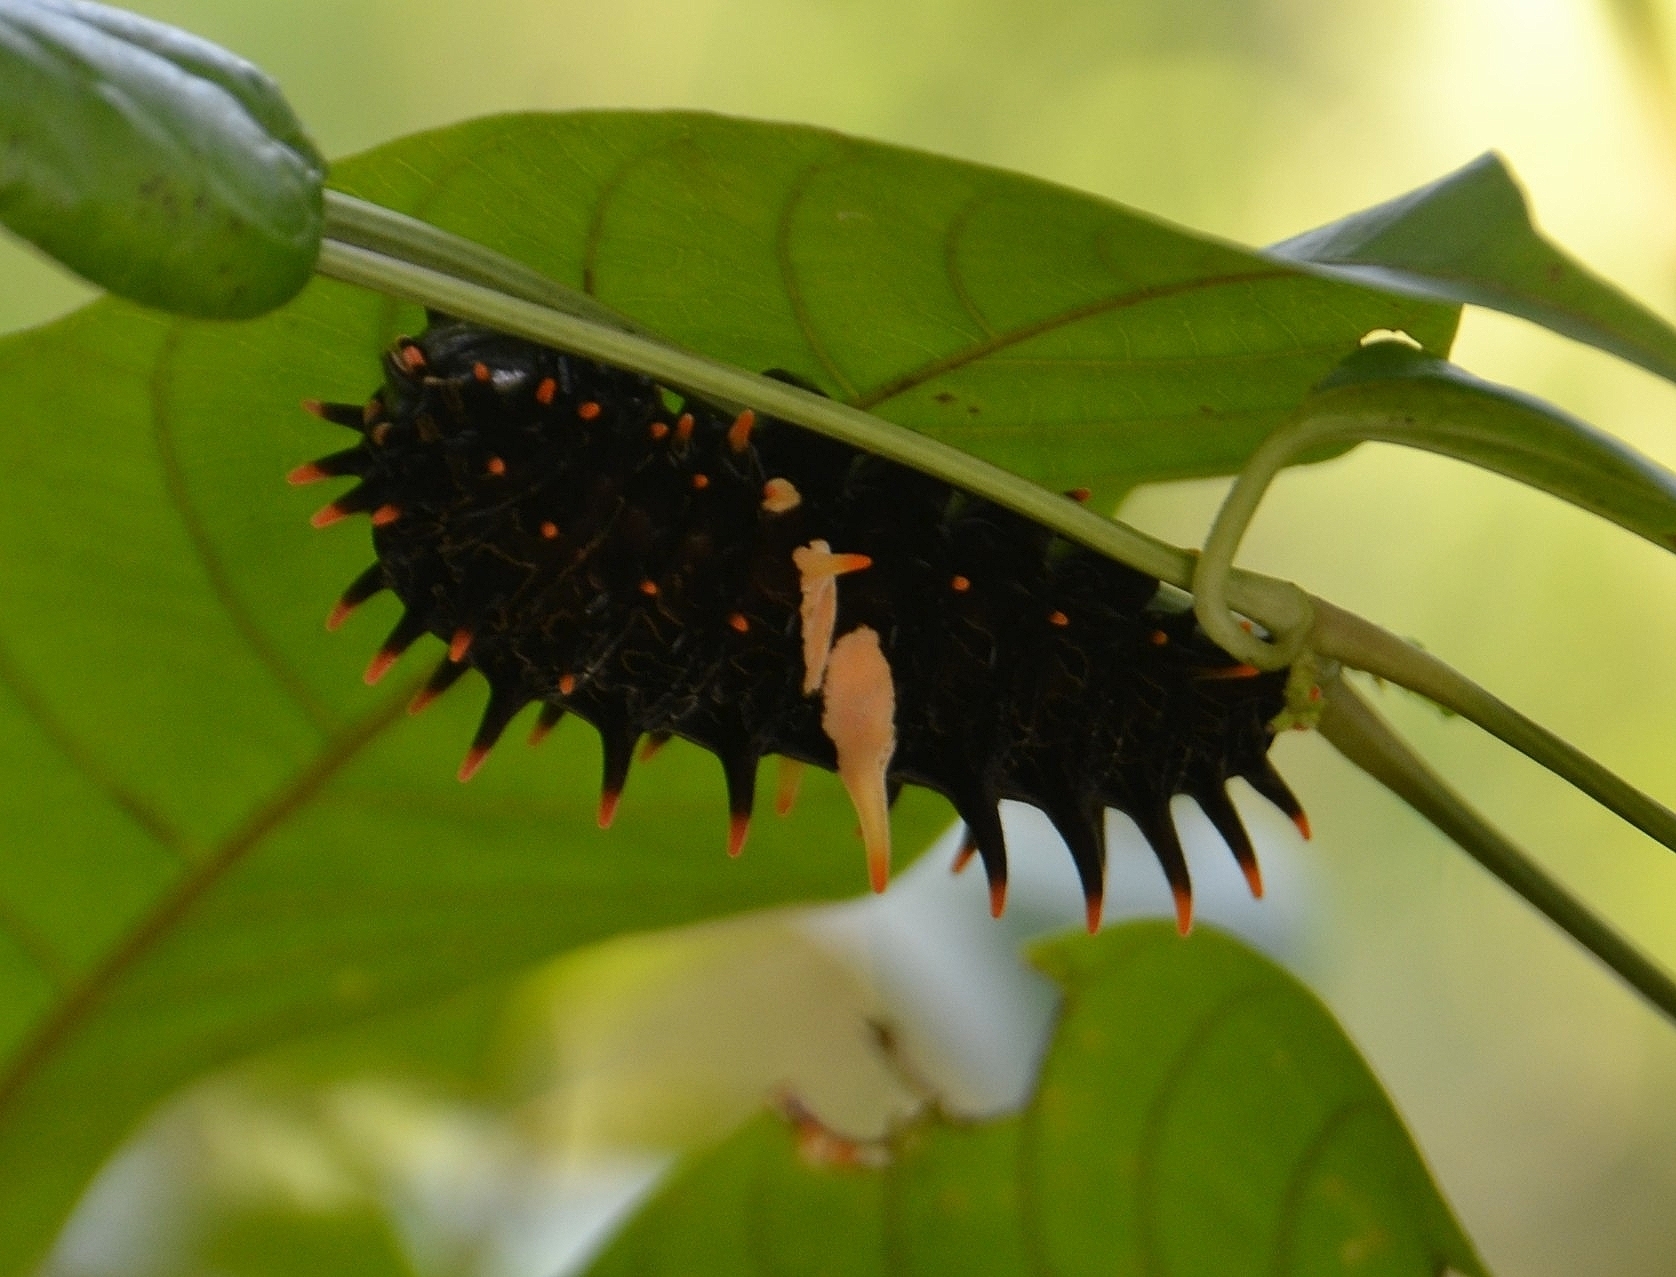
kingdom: Animalia
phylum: Arthropoda
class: Insecta
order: Lepidoptera
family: Papilionidae
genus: Troides
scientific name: Troides minos
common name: Malabar birdwing
